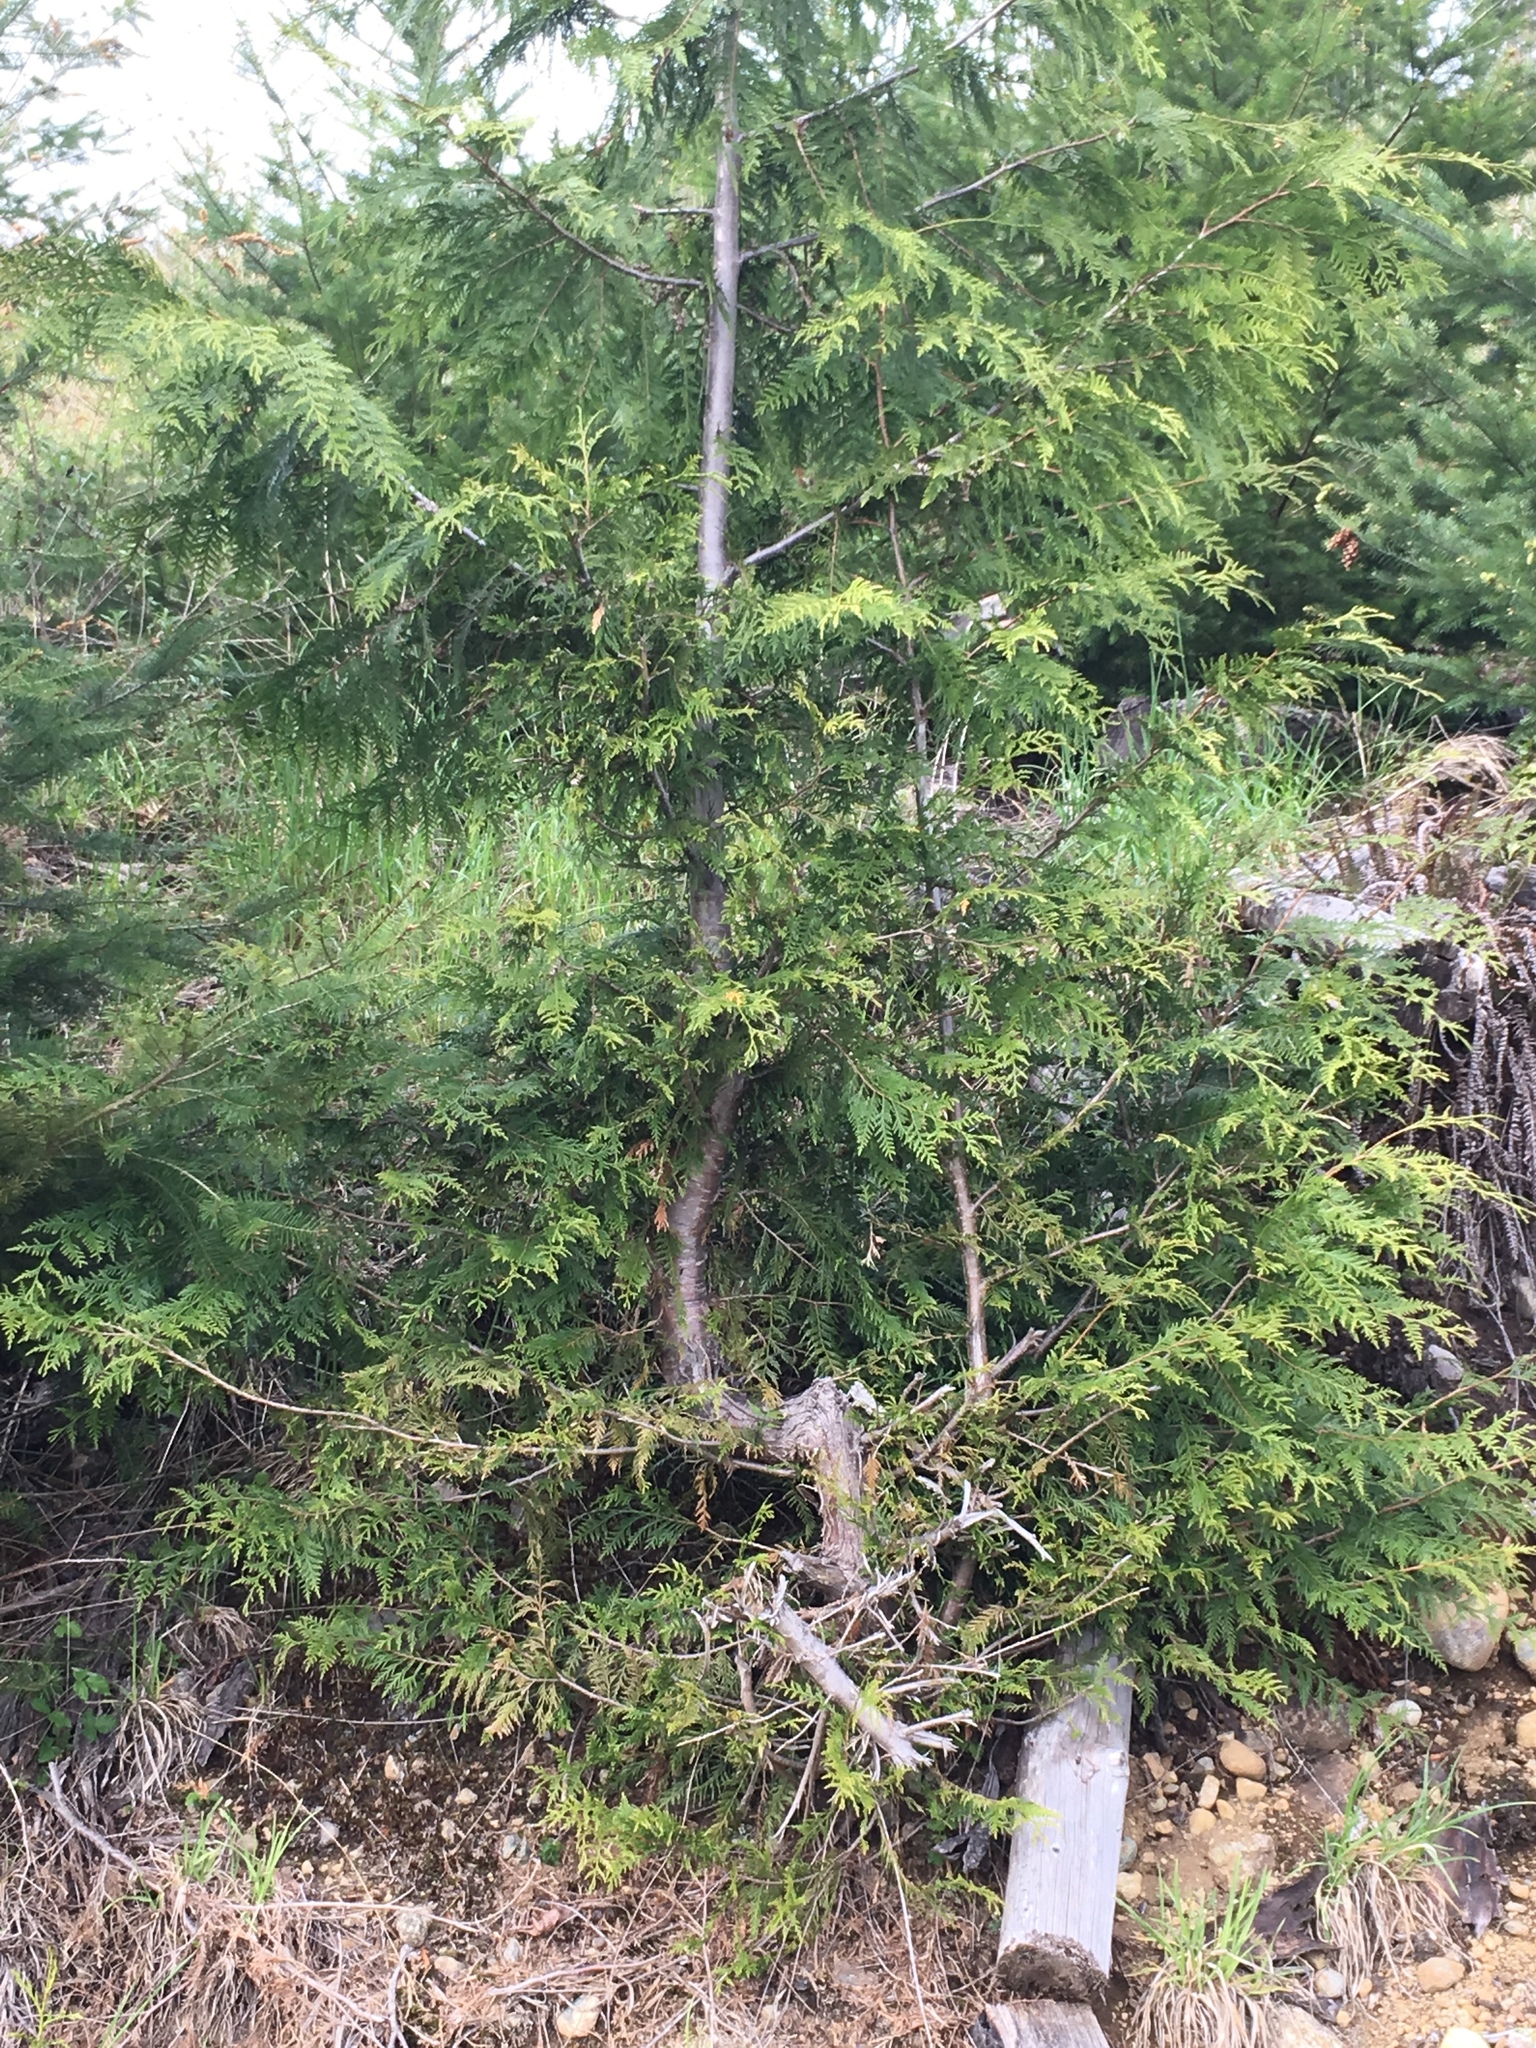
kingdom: Plantae
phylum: Tracheophyta
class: Pinopsida
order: Pinales
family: Cupressaceae
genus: Thuja
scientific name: Thuja plicata
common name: Western red-cedar
